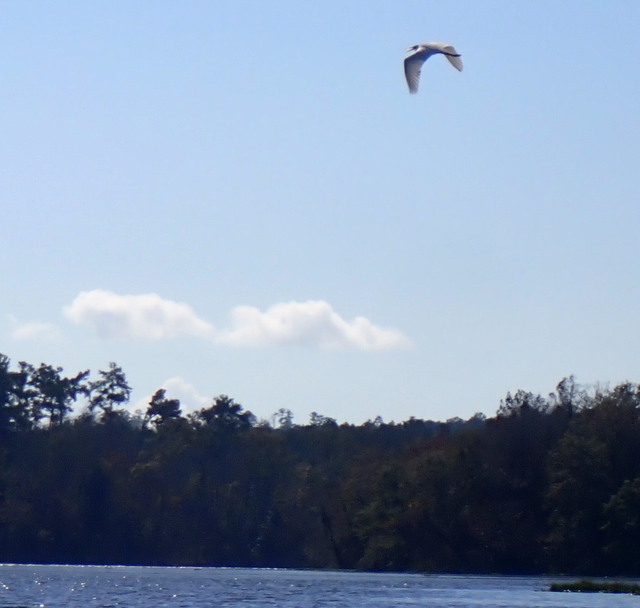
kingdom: Animalia
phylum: Chordata
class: Aves
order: Pelecaniformes
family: Ardeidae
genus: Ardea
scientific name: Ardea alba
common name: Great egret
